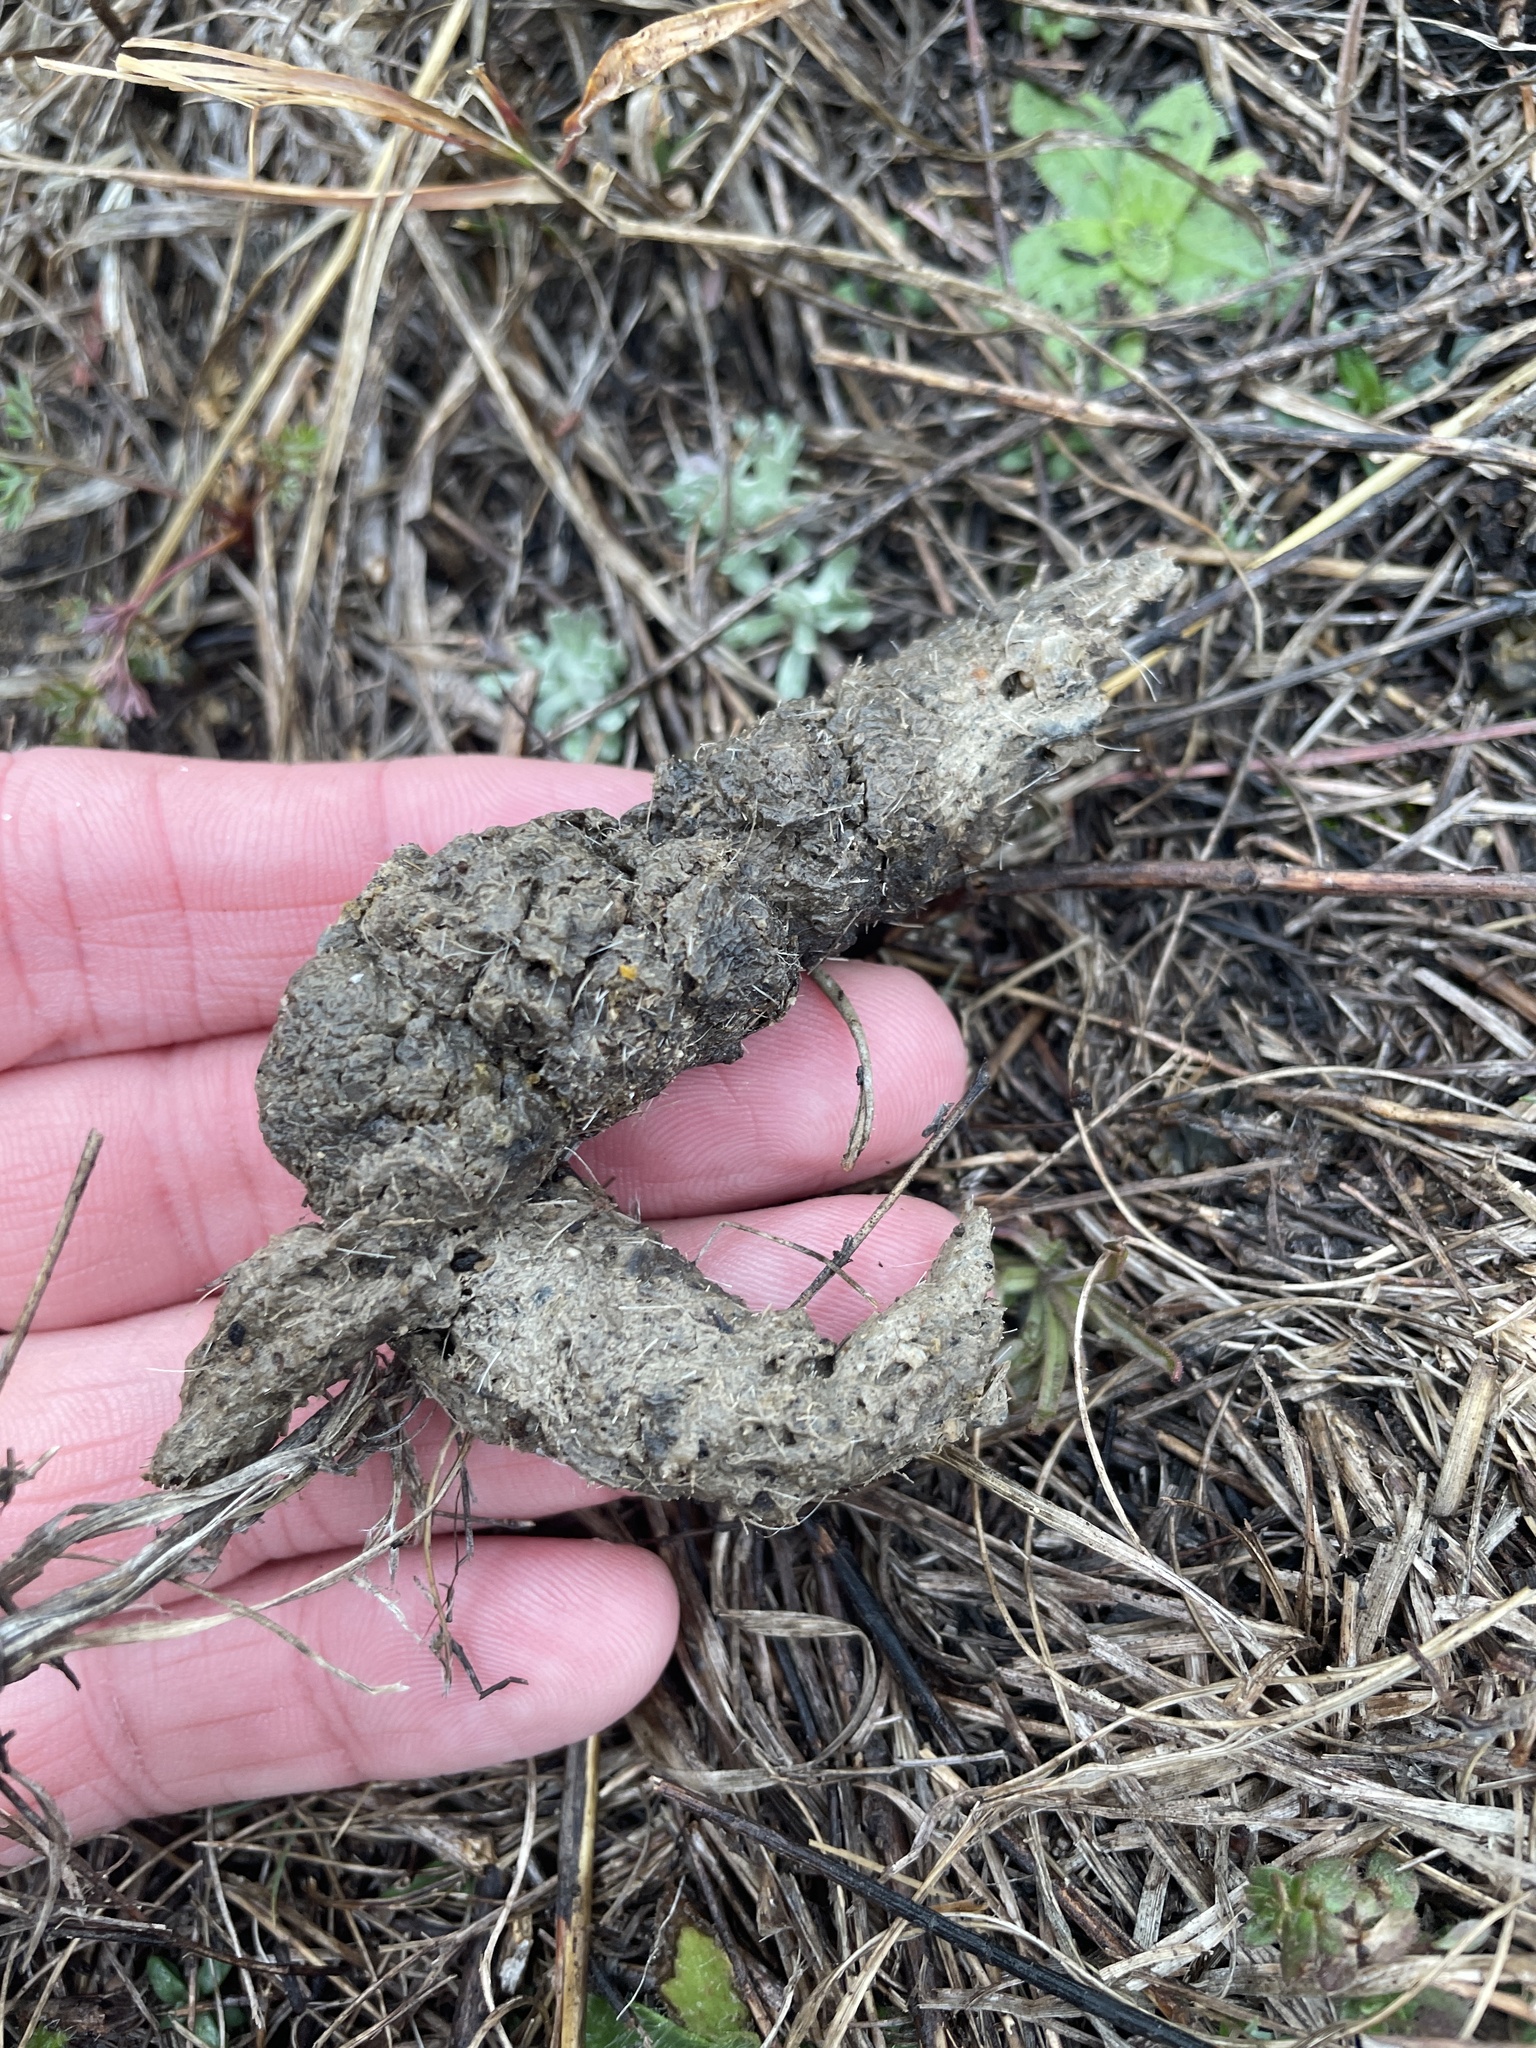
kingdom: Animalia
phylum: Chordata
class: Mammalia
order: Carnivora
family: Canidae
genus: Canis
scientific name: Canis latrans
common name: Coyote
